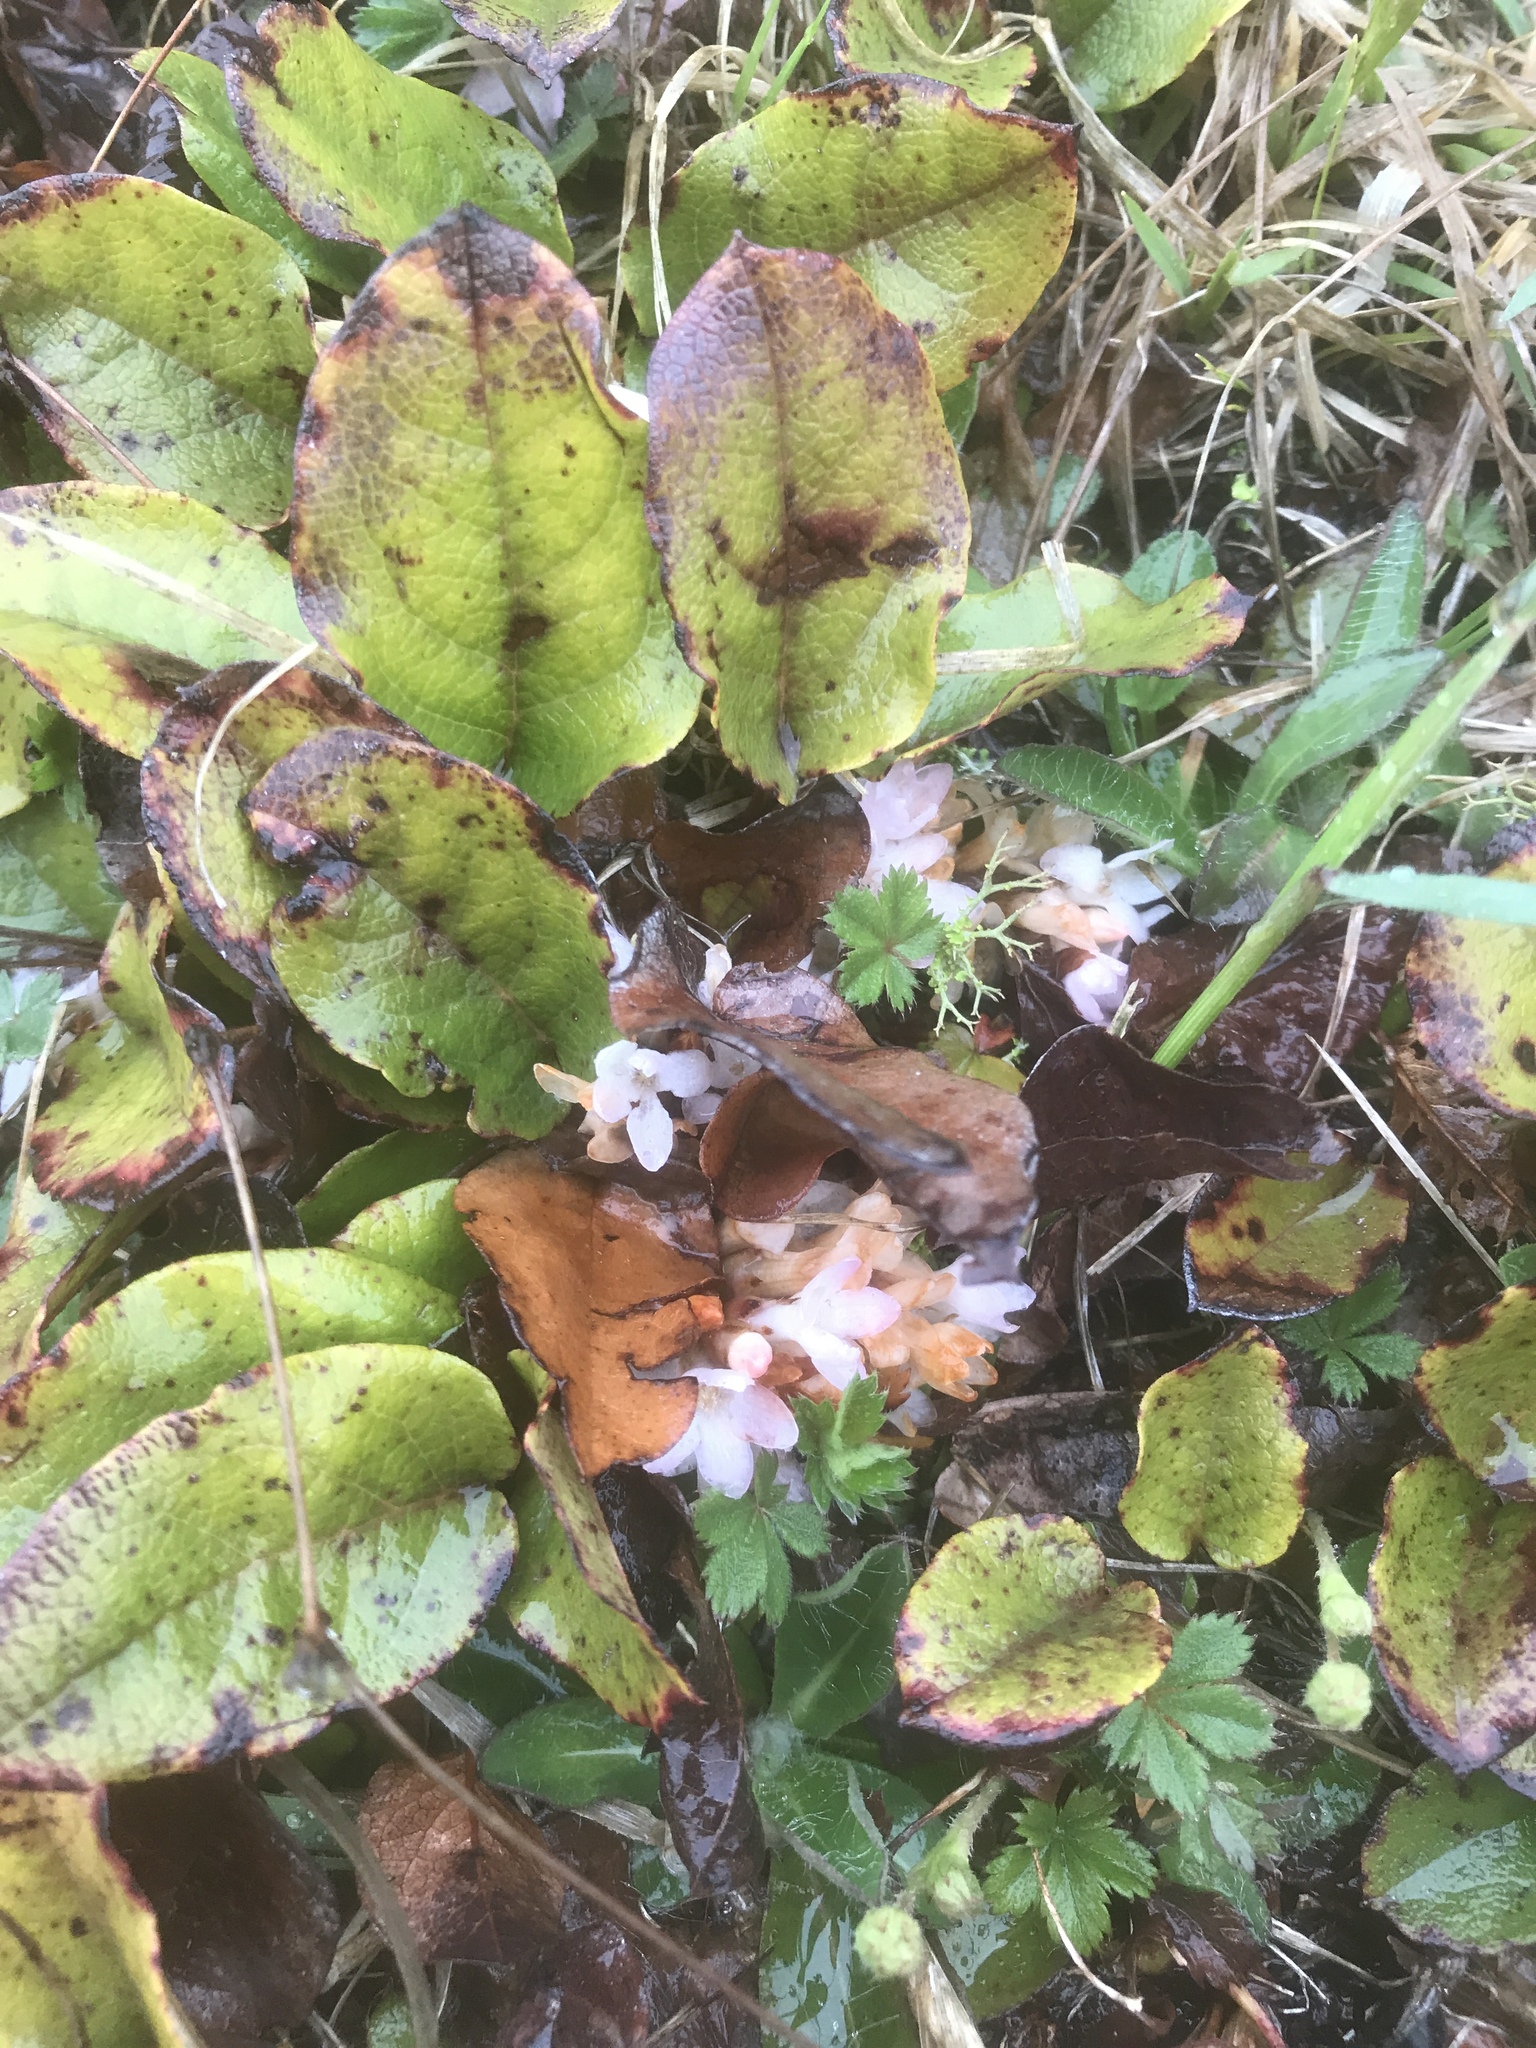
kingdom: Plantae
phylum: Tracheophyta
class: Magnoliopsida
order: Ericales
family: Ericaceae
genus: Epigaea
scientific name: Epigaea repens
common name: Gravelroot
